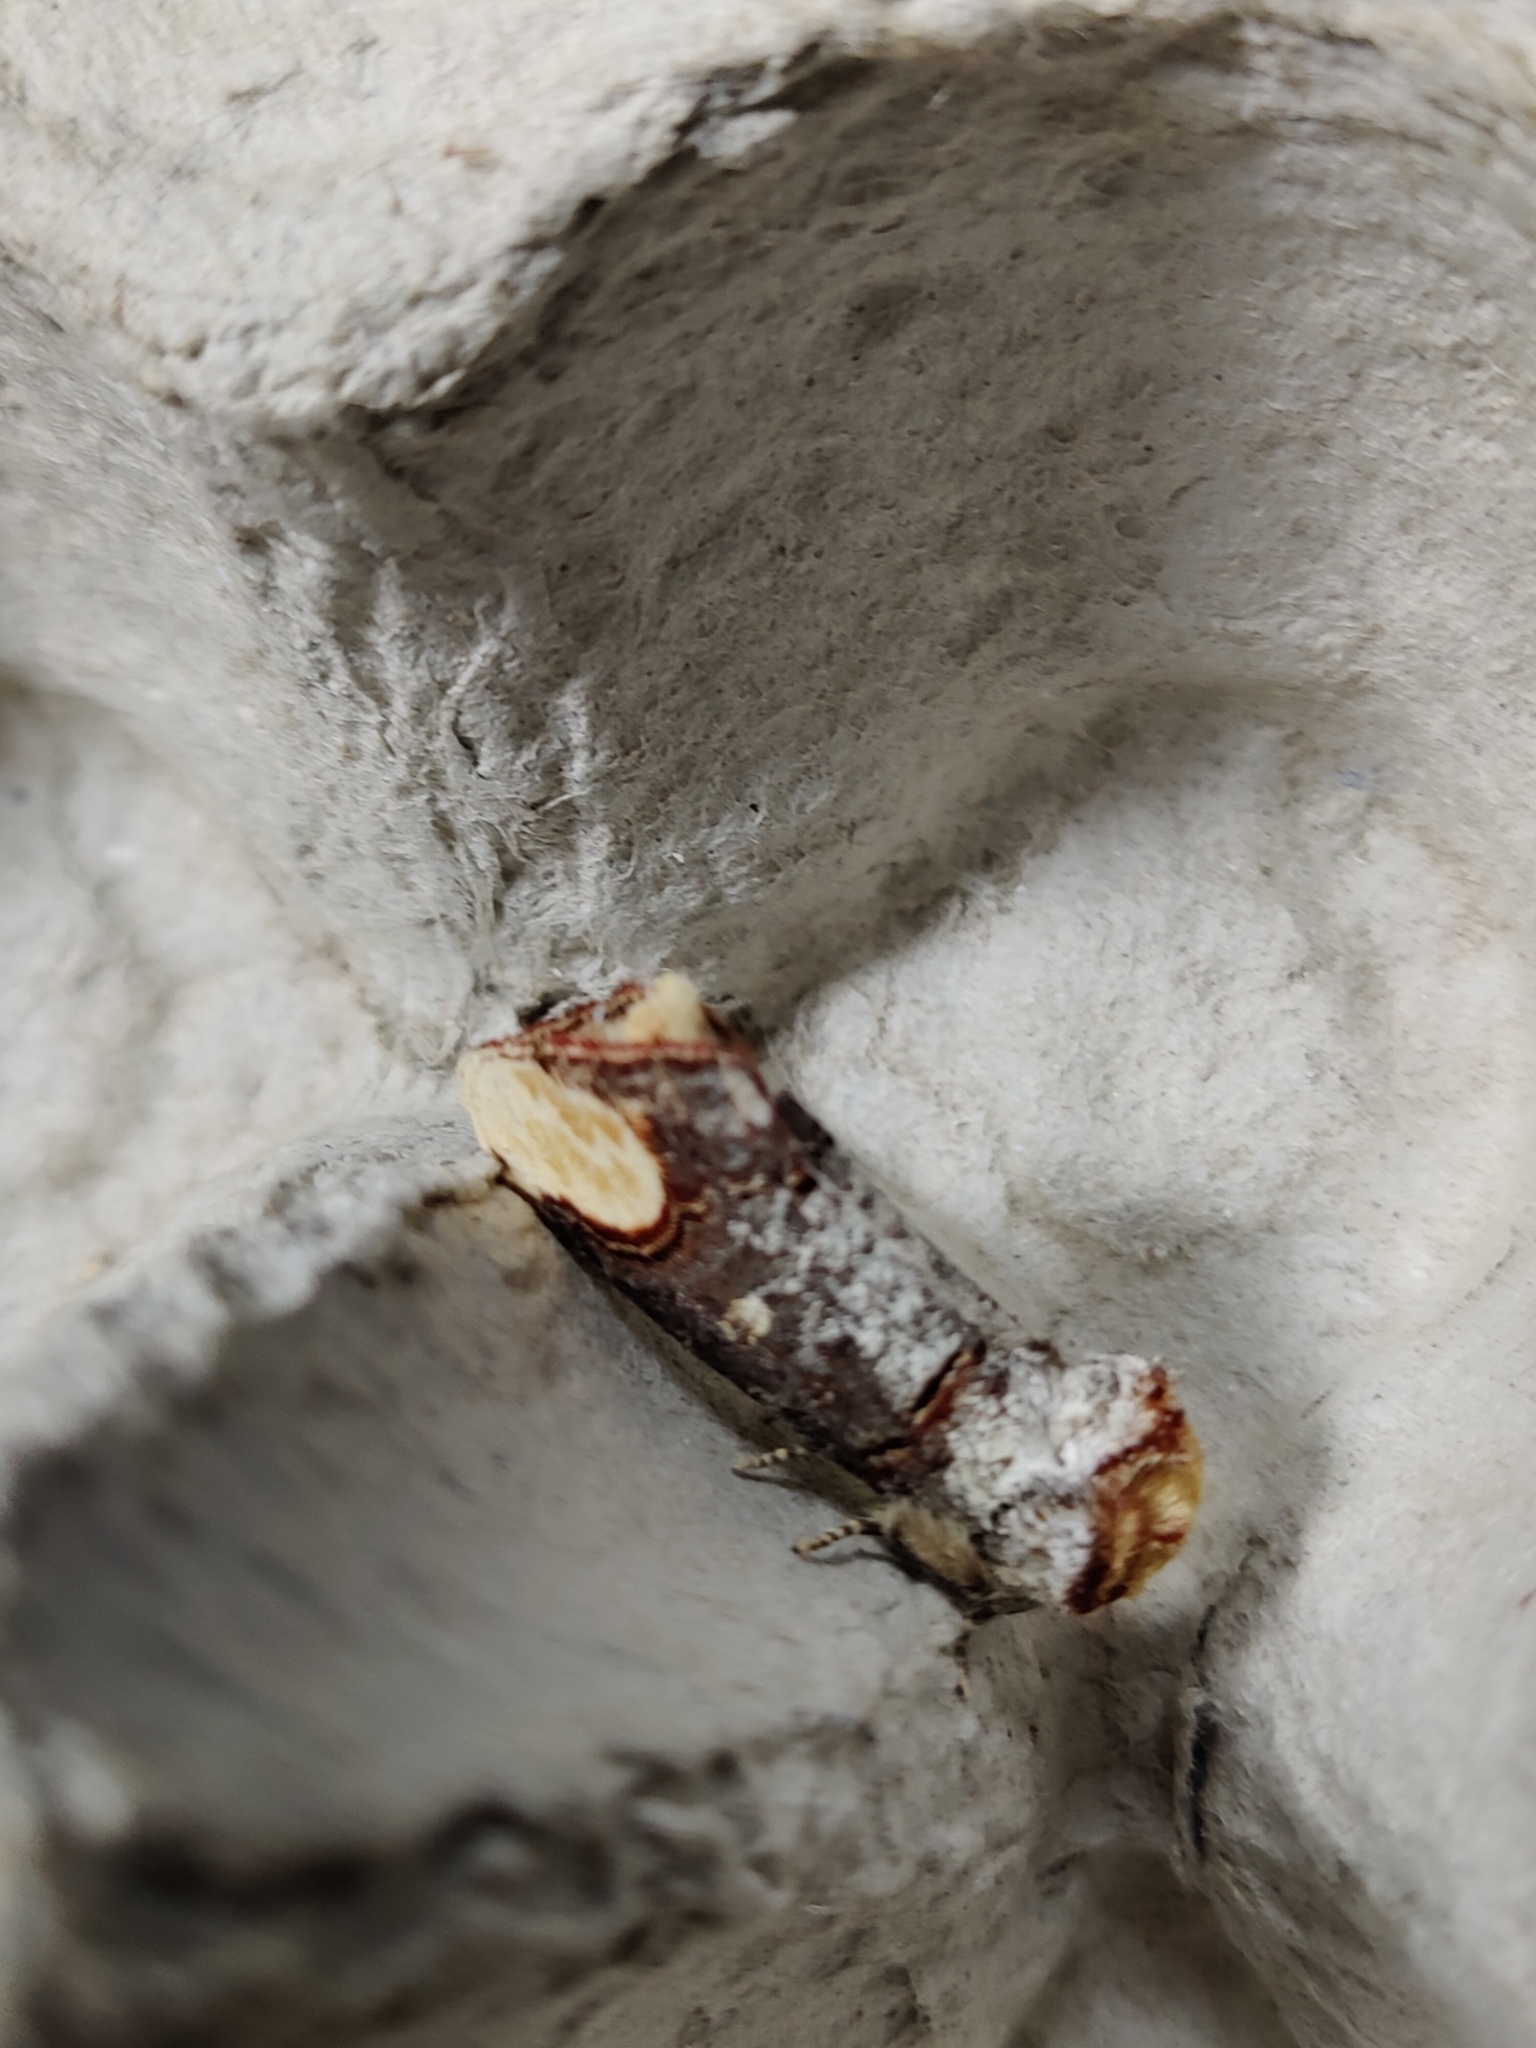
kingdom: Animalia
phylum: Arthropoda
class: Insecta
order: Lepidoptera
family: Notodontidae
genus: Phalera
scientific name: Phalera bucephala
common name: Buff-tip
